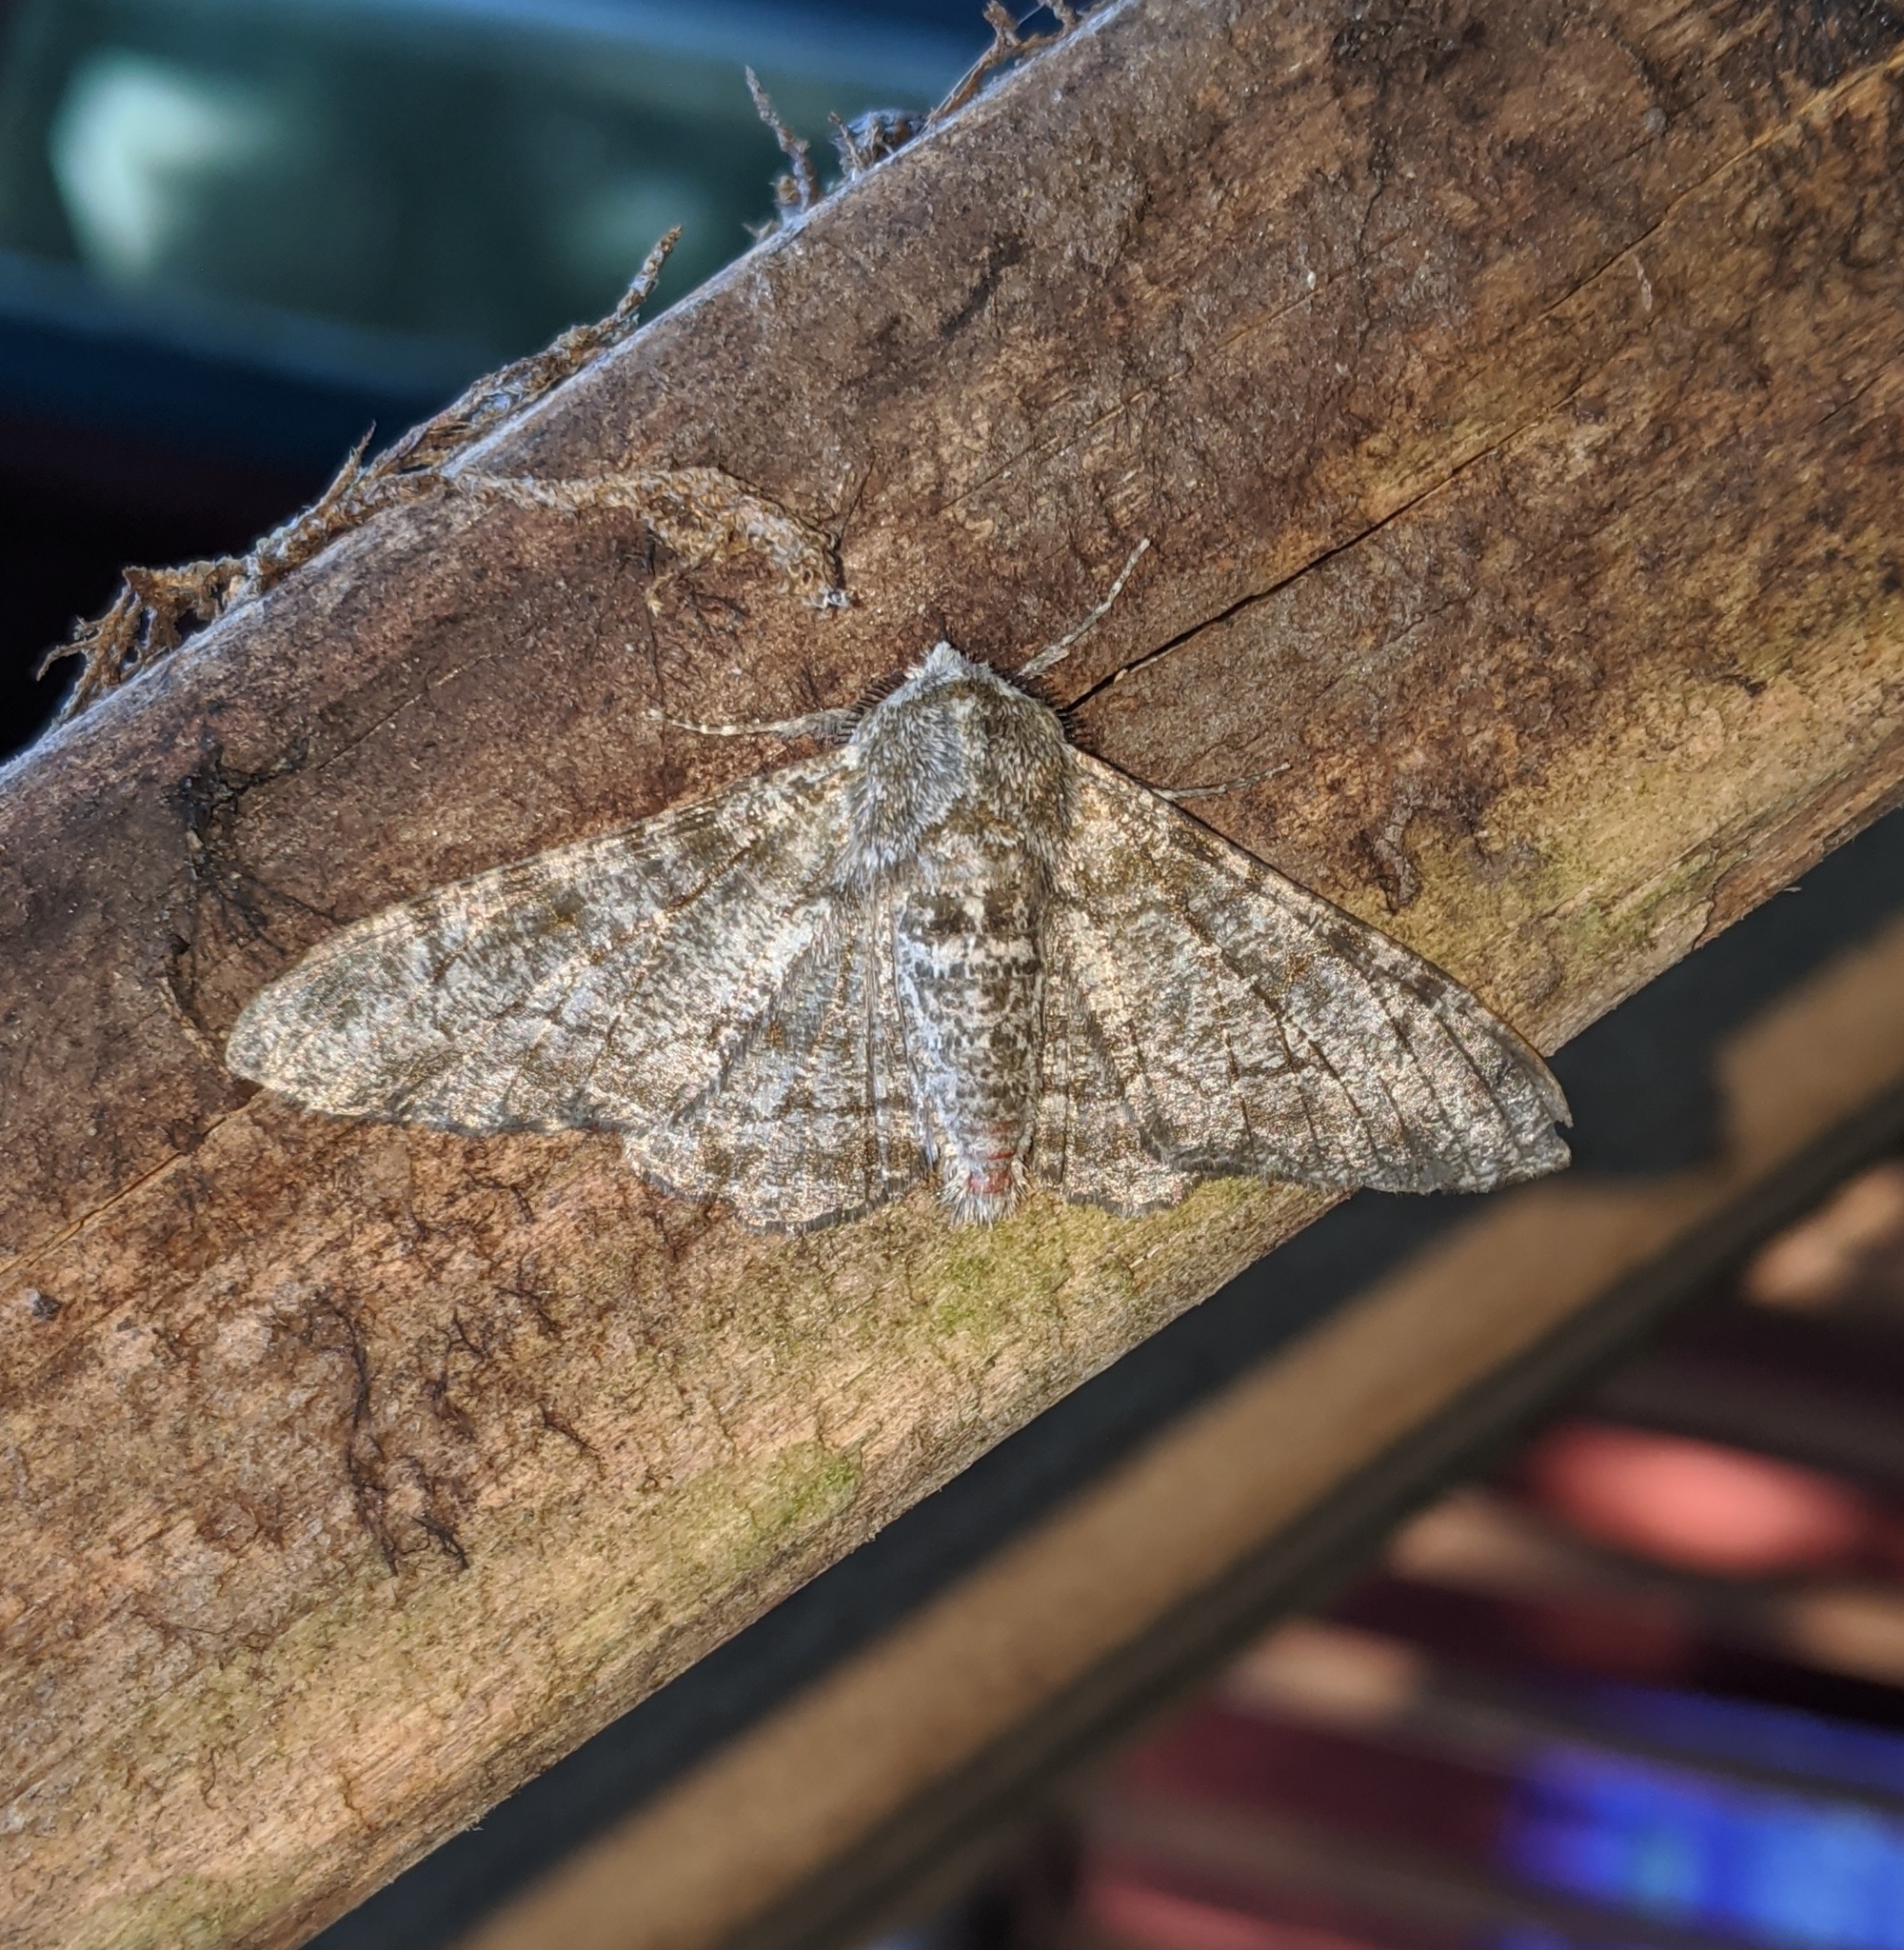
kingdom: Animalia
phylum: Arthropoda
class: Insecta
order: Lepidoptera
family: Geometridae
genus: Biston
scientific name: Biston betularia
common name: Peppered moth
